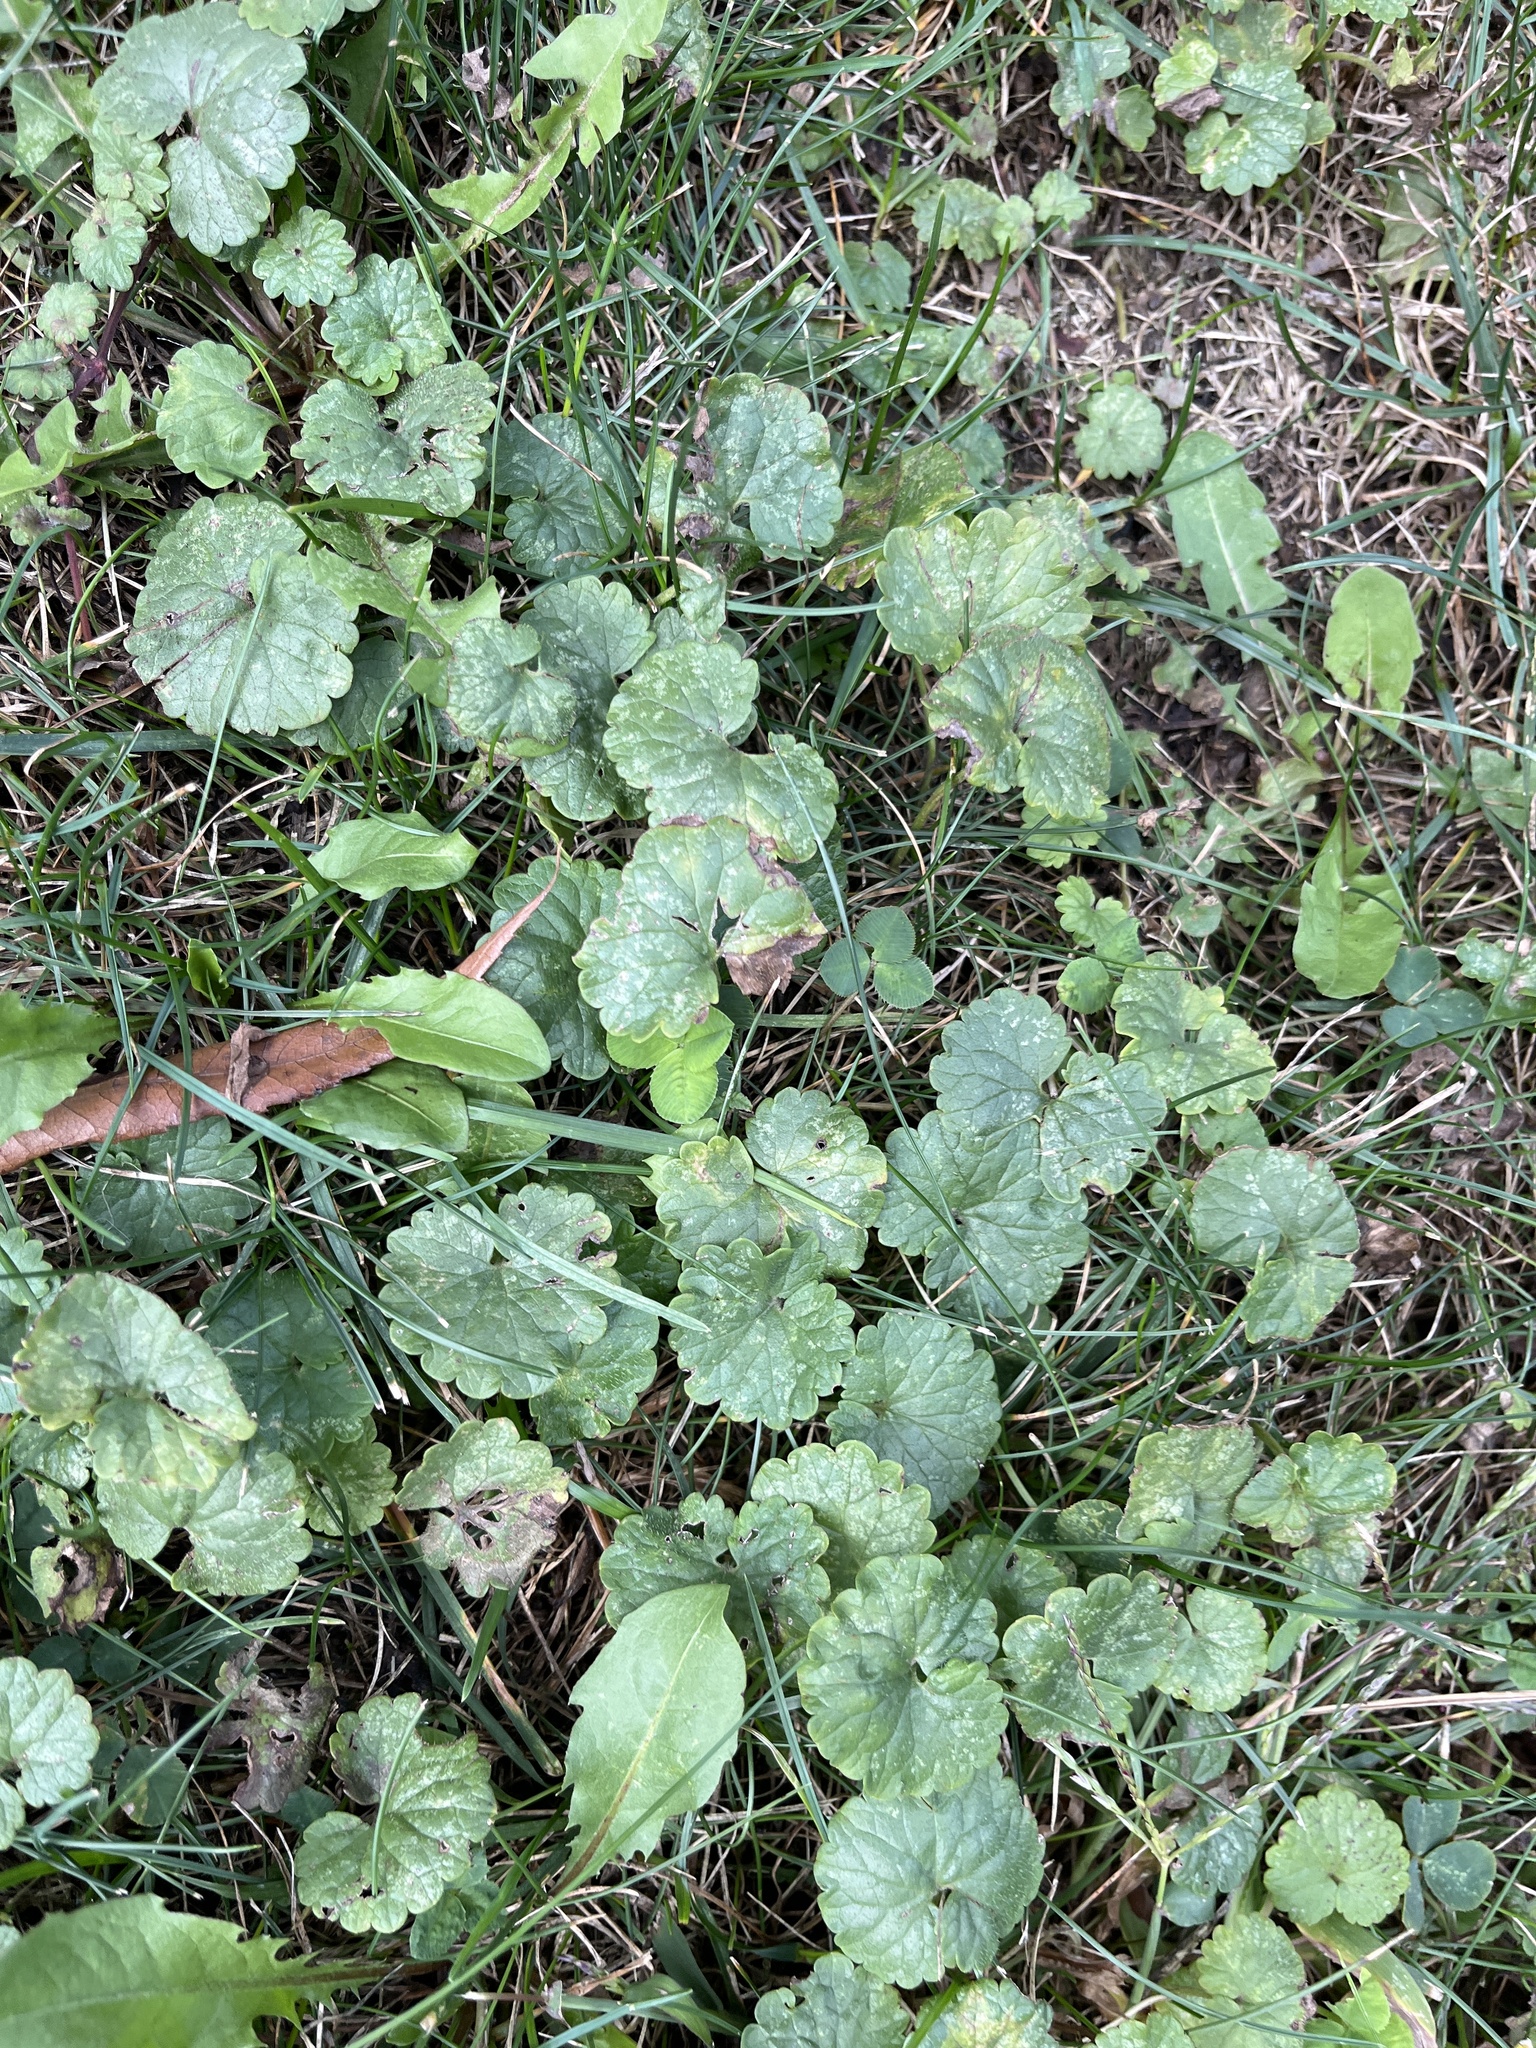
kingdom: Plantae
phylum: Tracheophyta
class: Magnoliopsida
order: Lamiales
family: Lamiaceae
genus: Glechoma
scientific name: Glechoma hederacea
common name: Ground ivy
